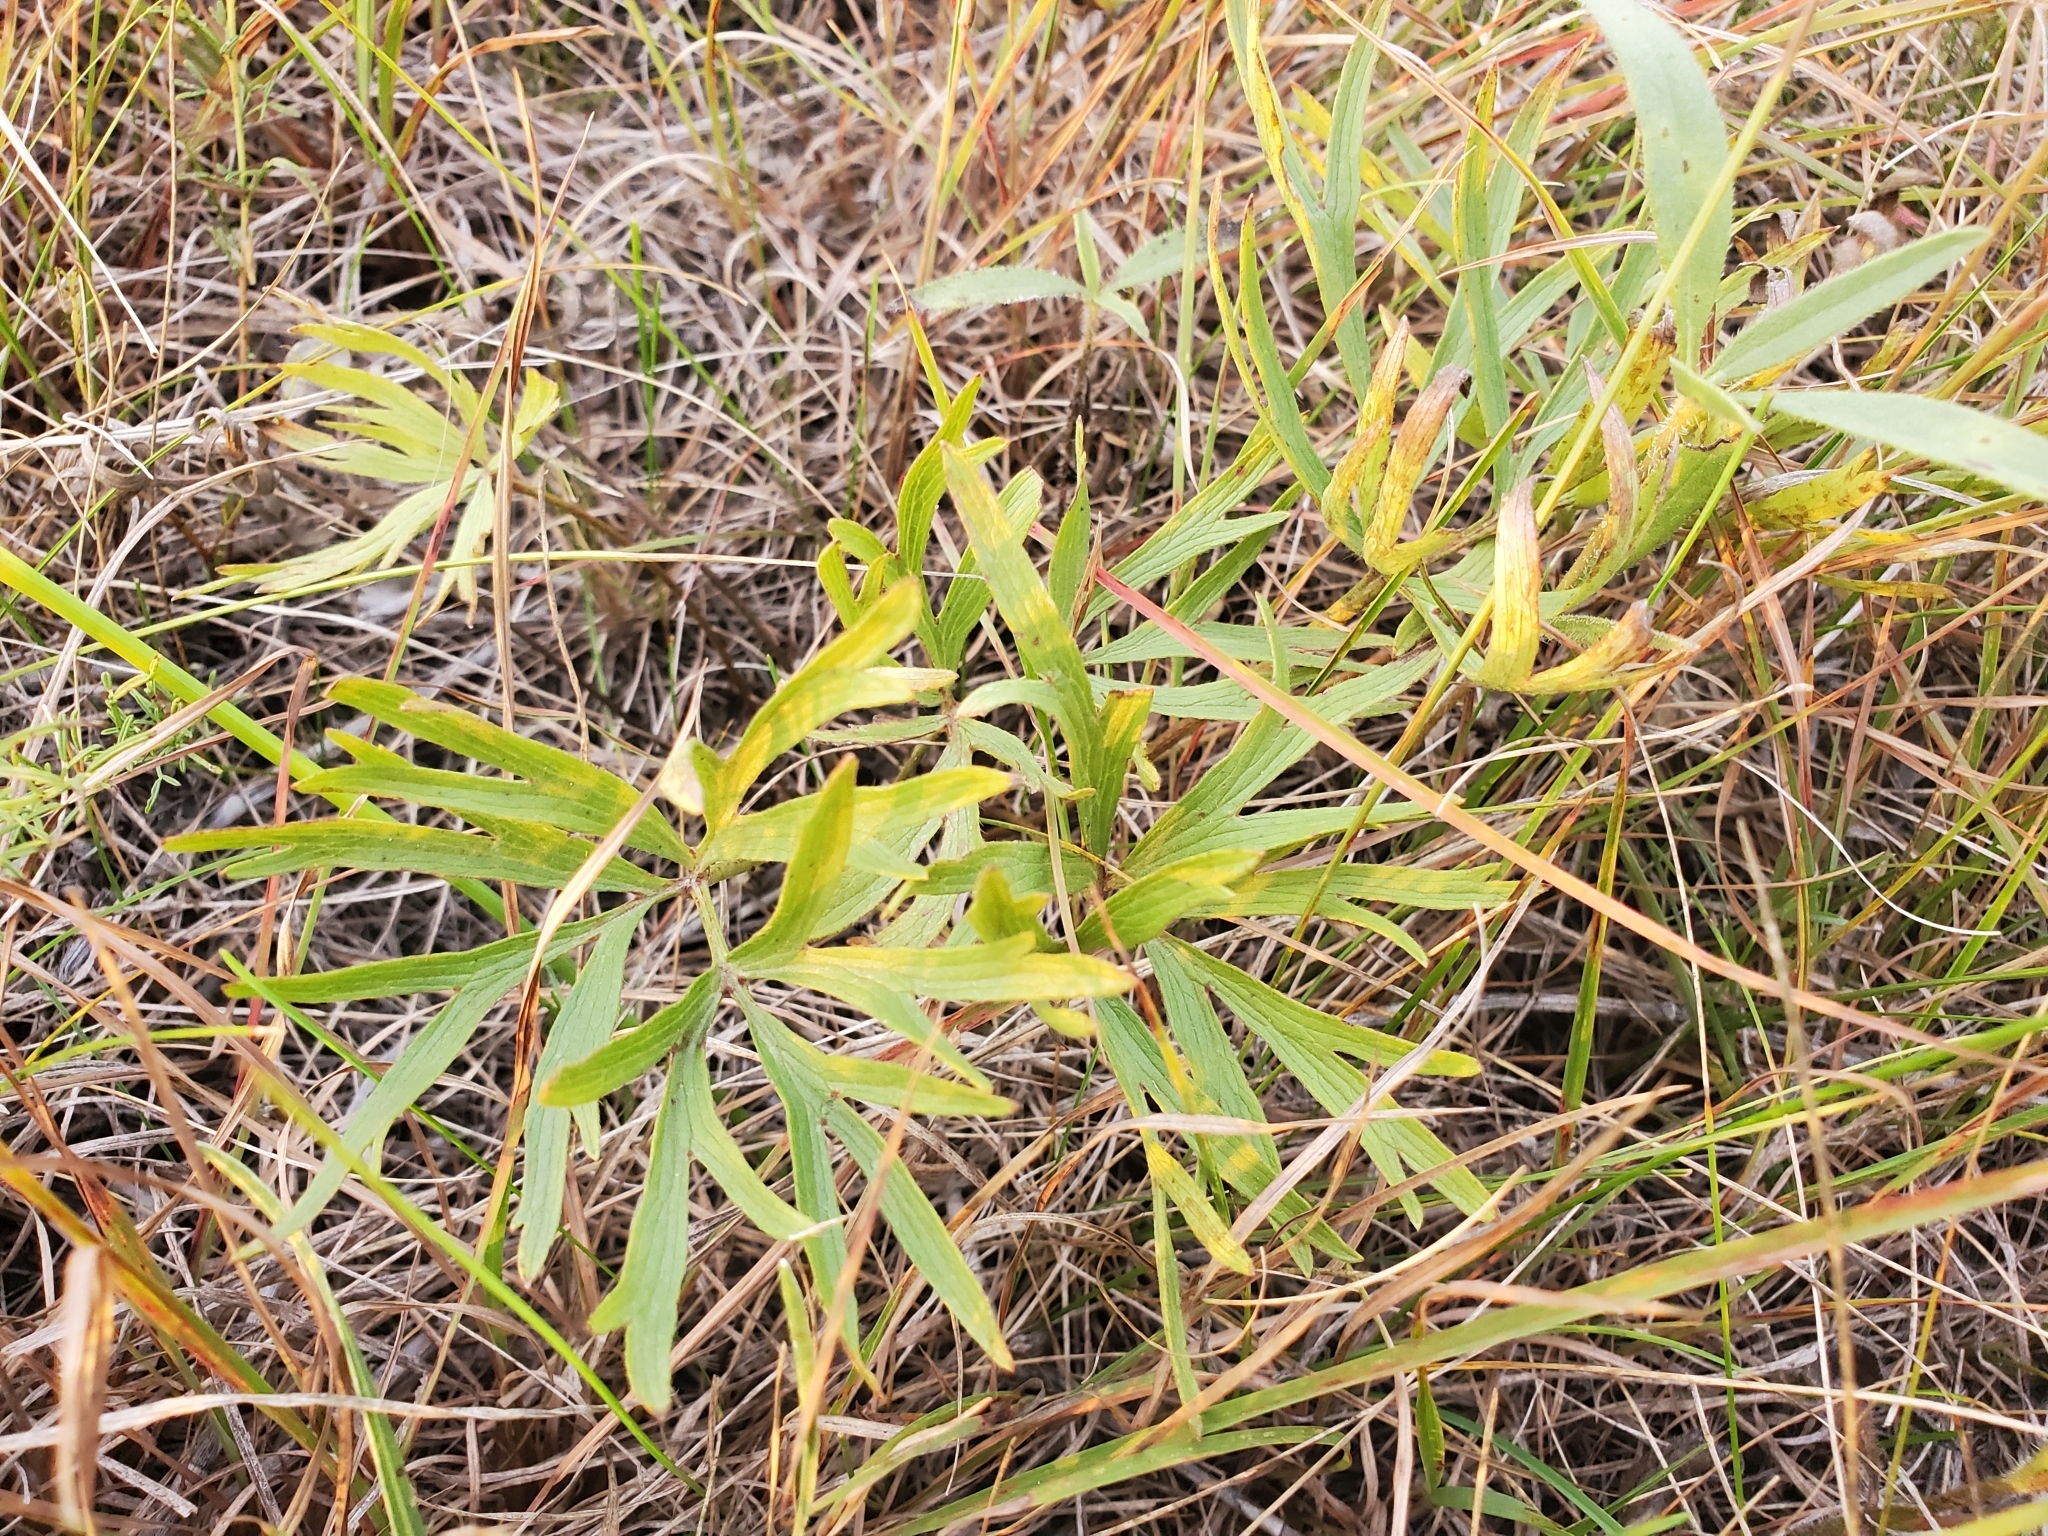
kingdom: Plantae
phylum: Tracheophyta
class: Magnoliopsida
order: Ranunculales
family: Ranunculaceae
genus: Pulsatilla
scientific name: Pulsatilla nuttalliana
